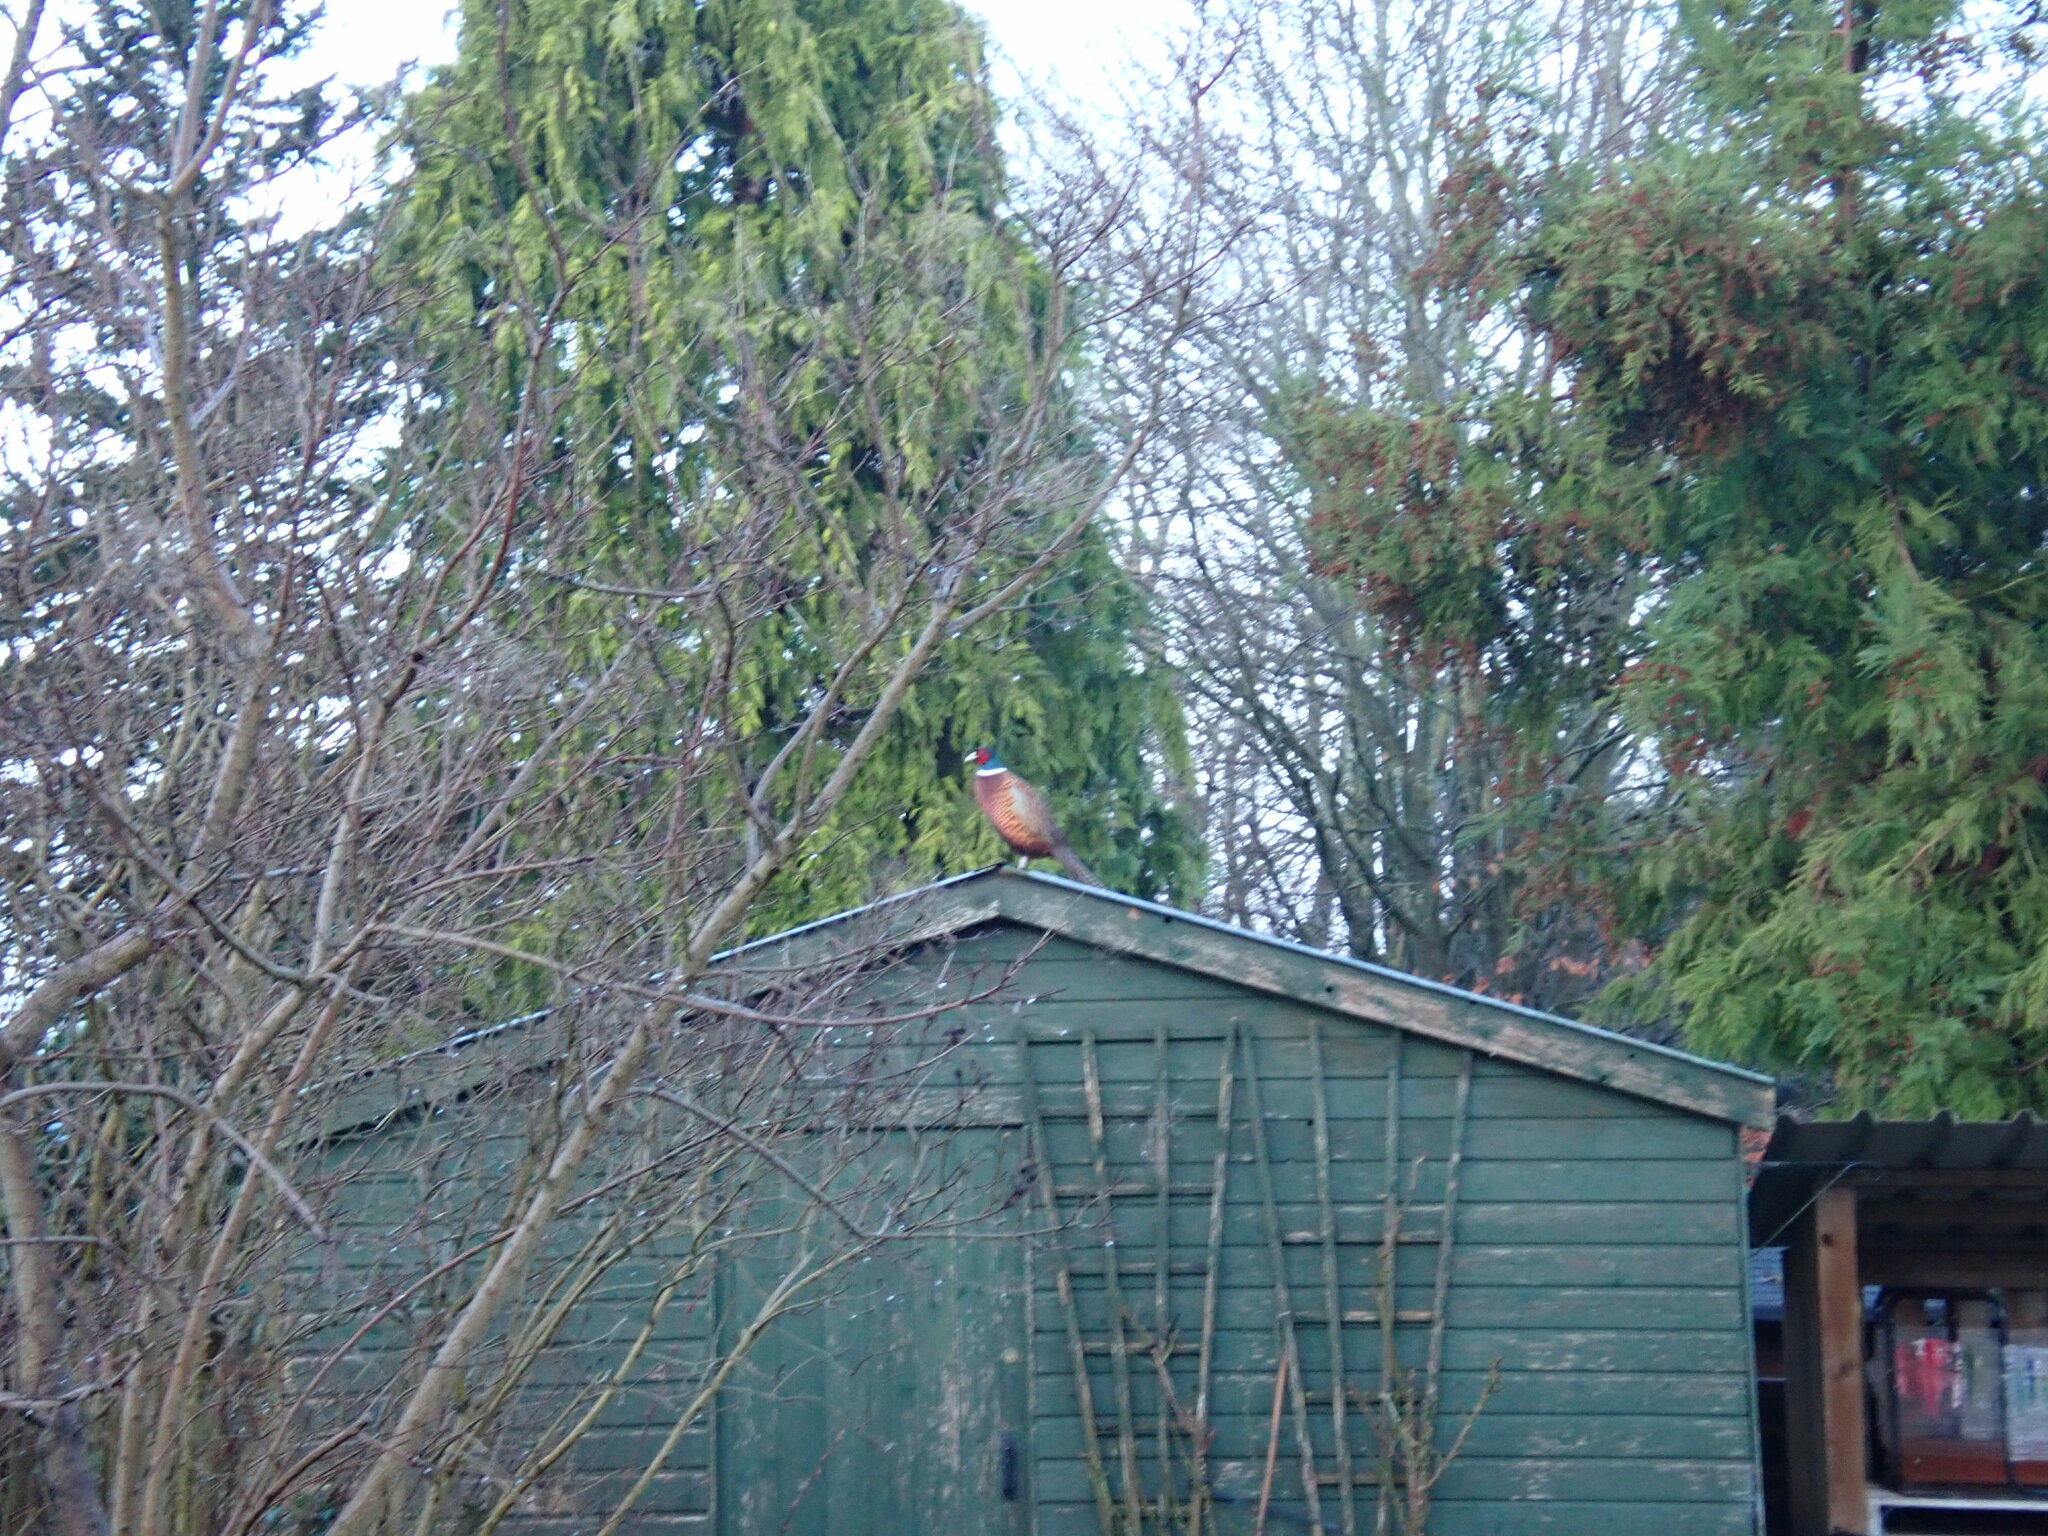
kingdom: Animalia
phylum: Chordata
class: Aves
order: Galliformes
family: Phasianidae
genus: Phasianus
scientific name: Phasianus colchicus
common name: Common pheasant
